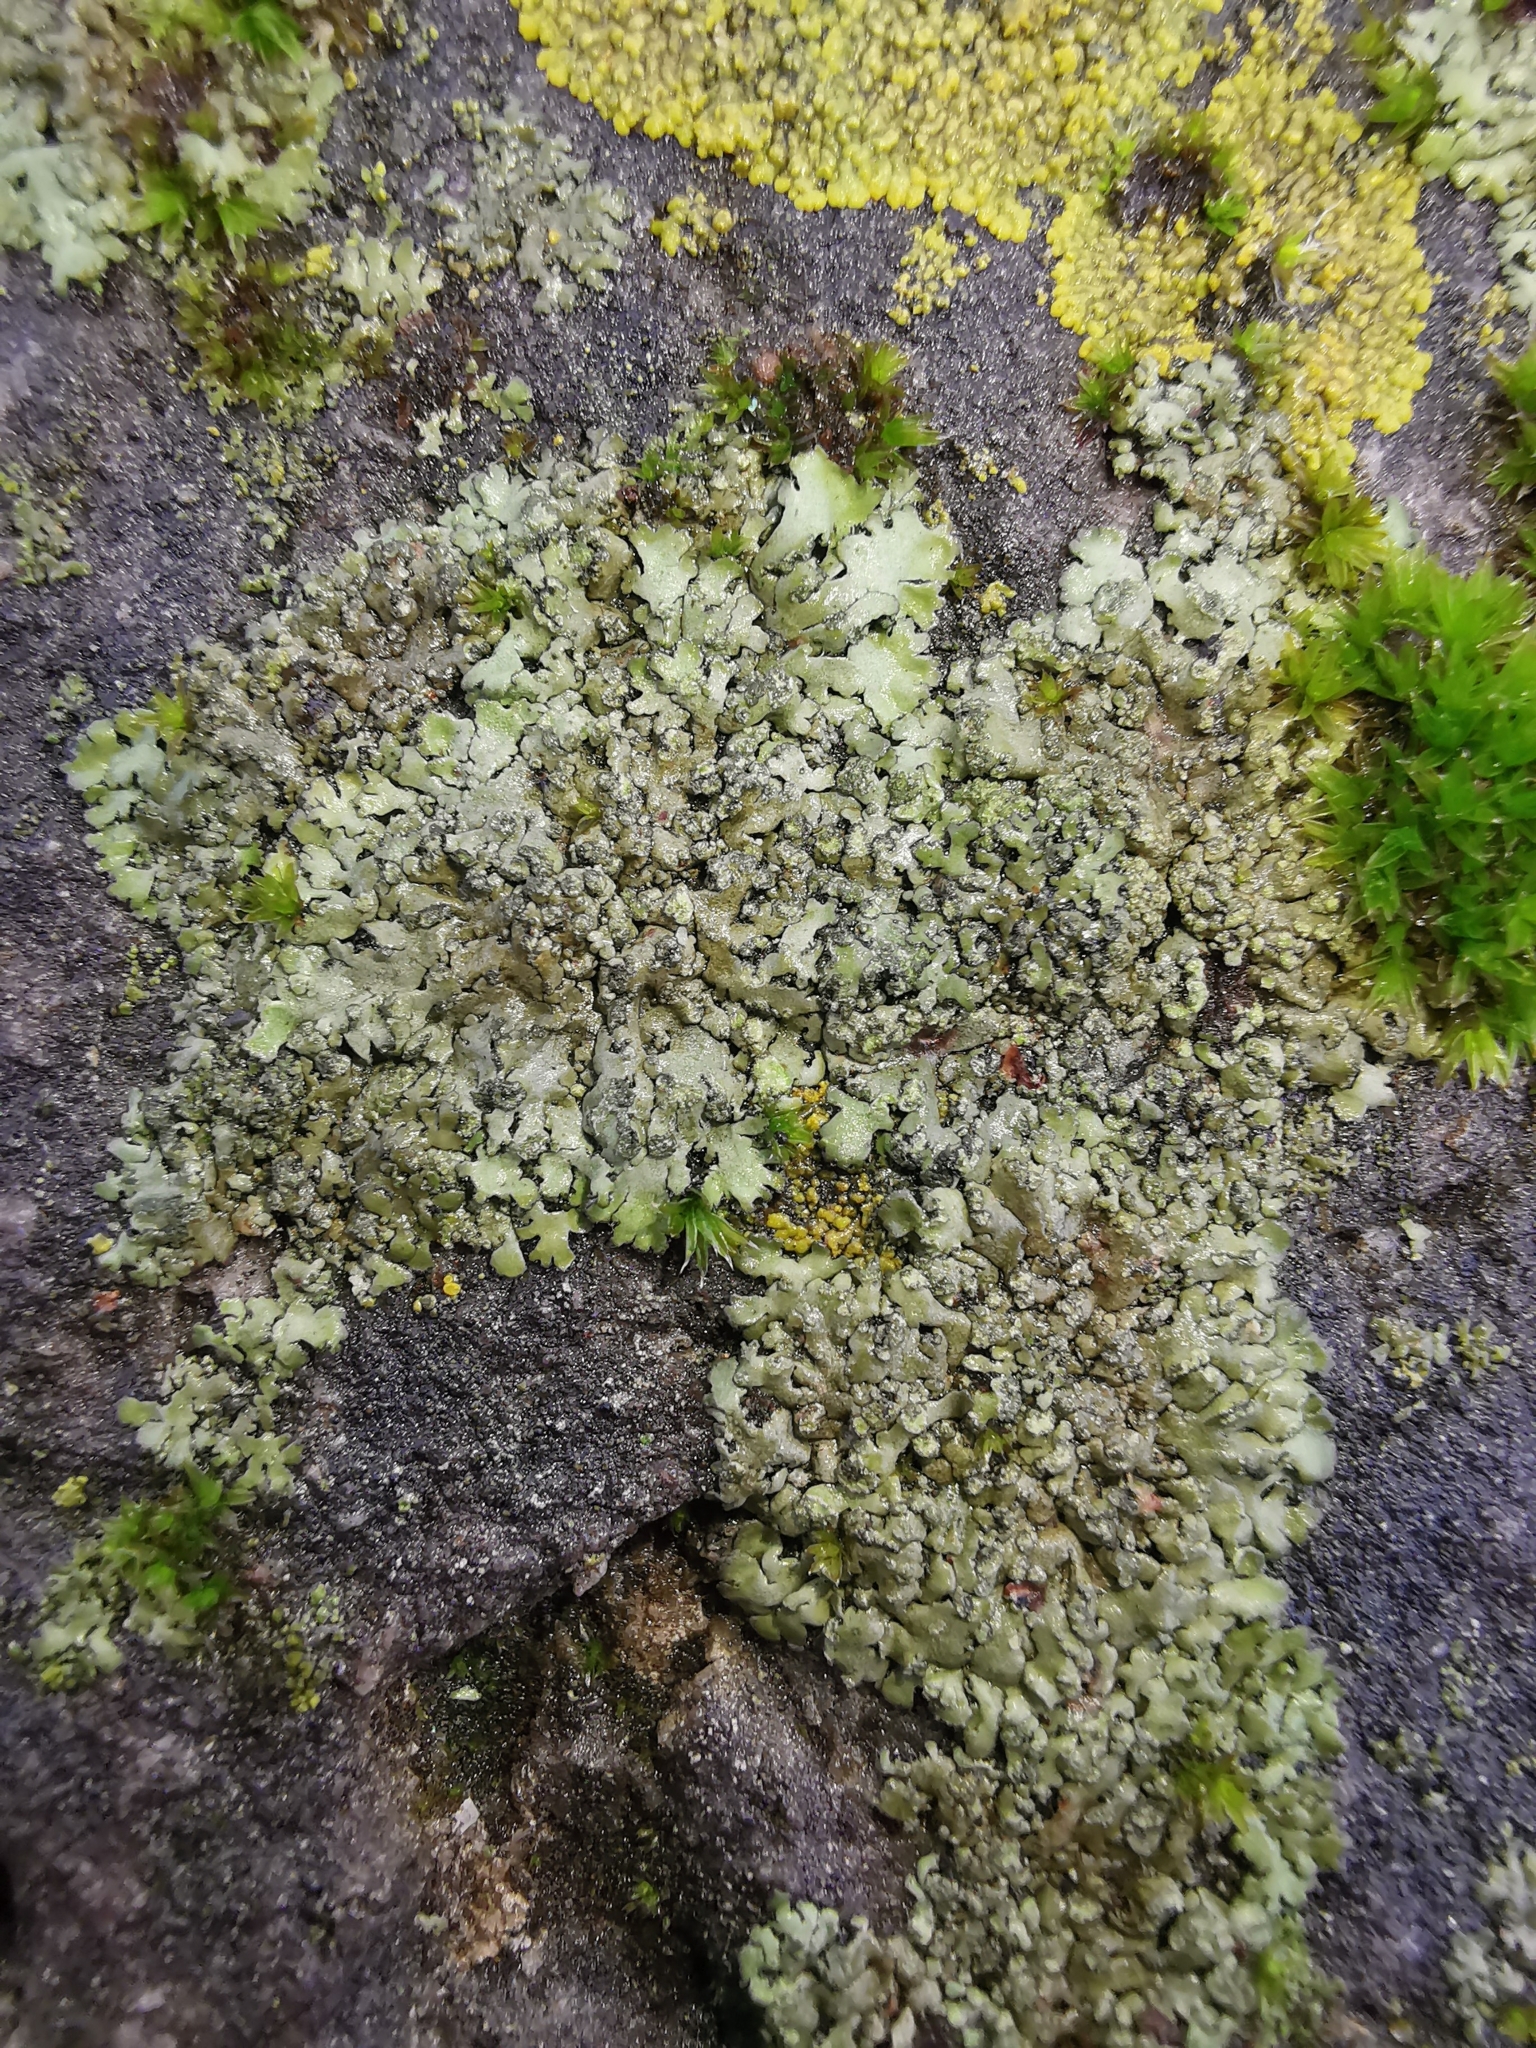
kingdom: Fungi
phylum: Ascomycota
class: Lecanoromycetes
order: Caliciales
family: Physciaceae
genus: Phaeophyscia
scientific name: Phaeophyscia orbicularis
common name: Mealy shadow lichen
